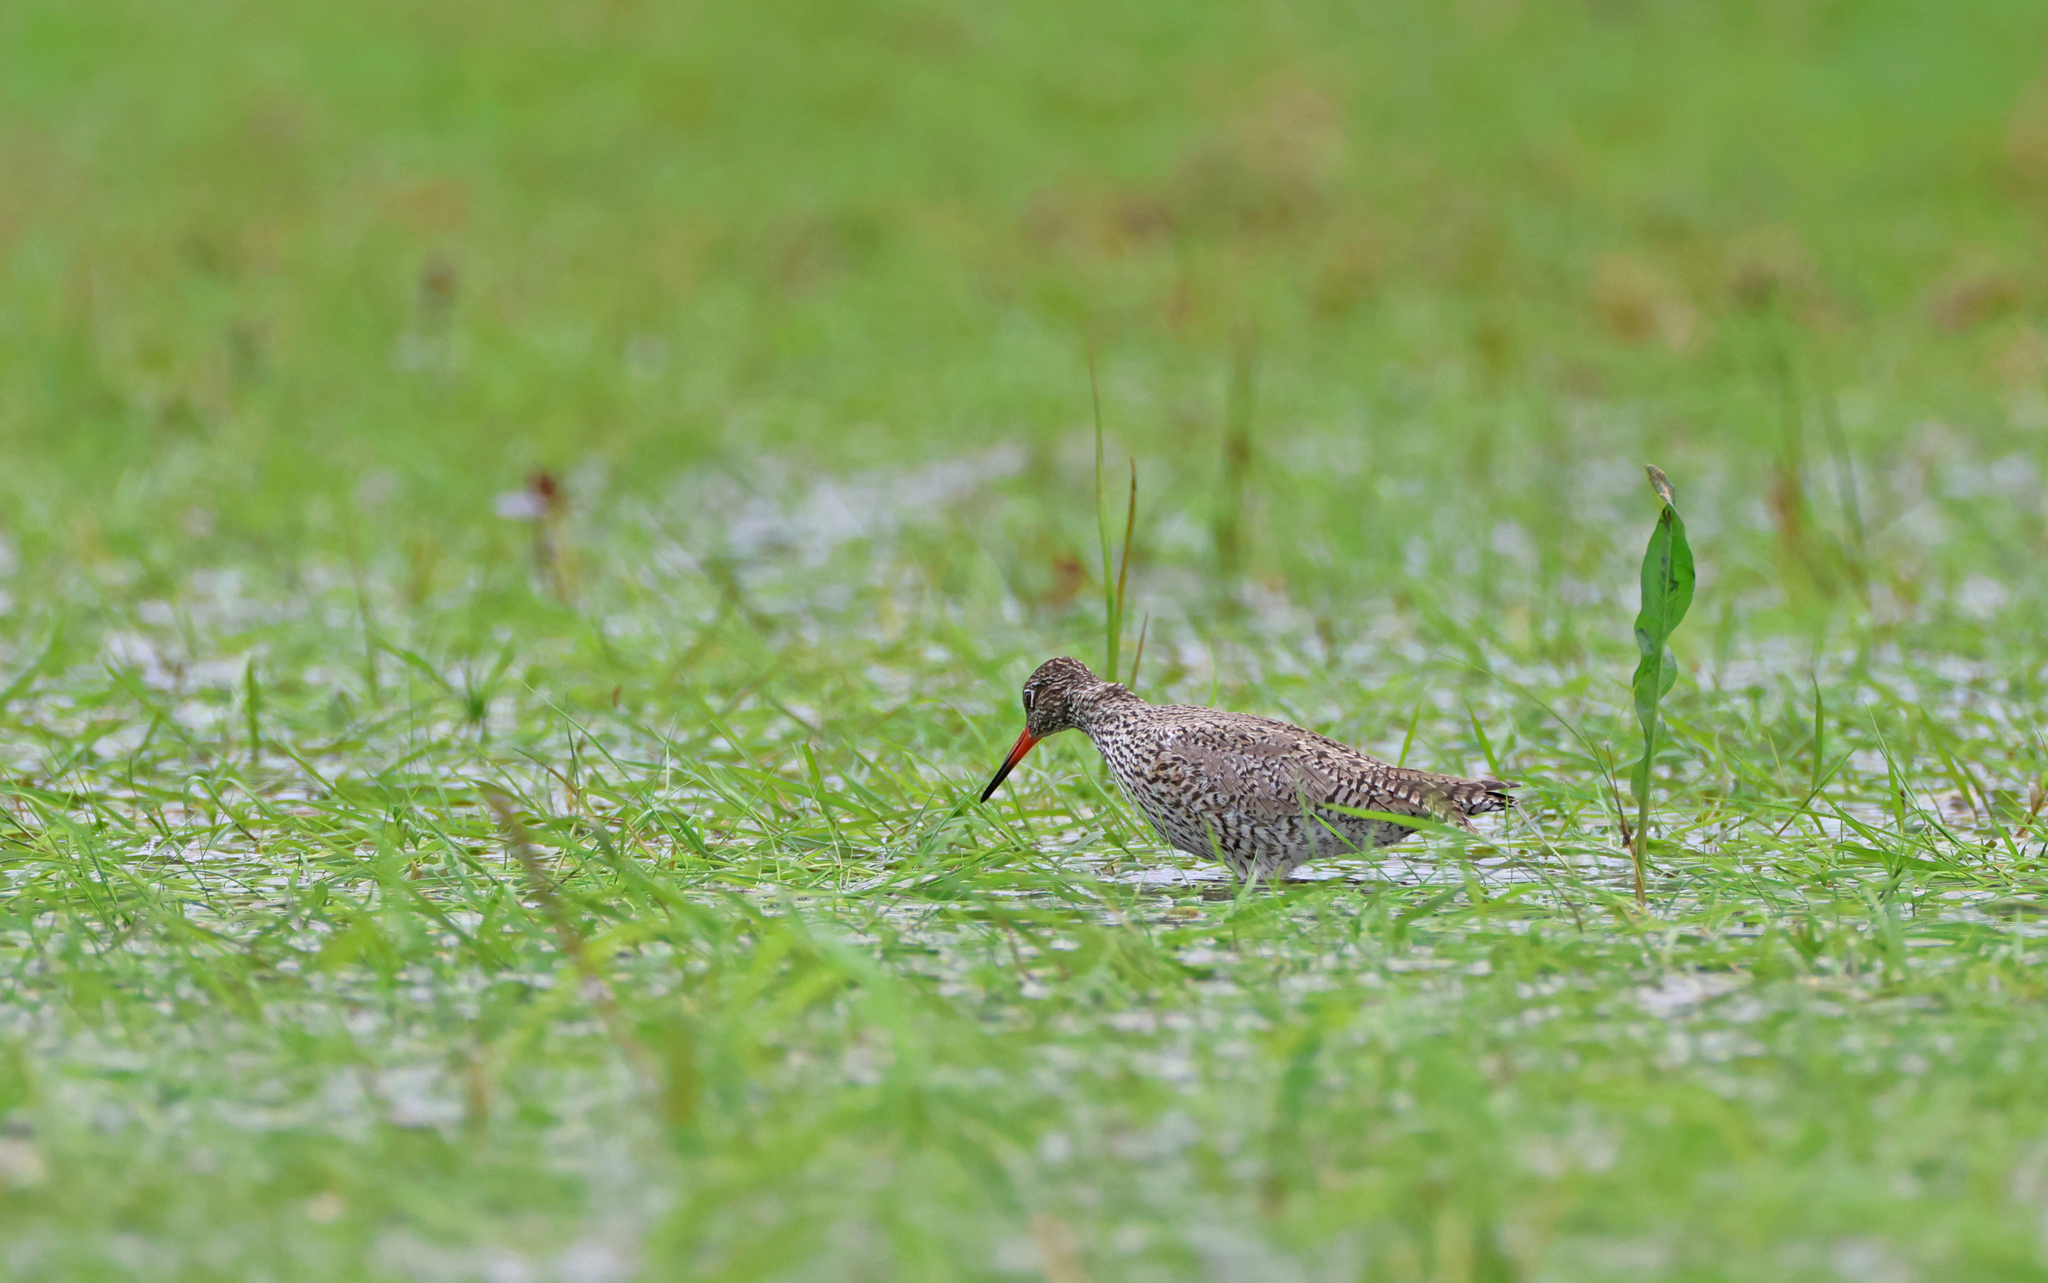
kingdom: Animalia
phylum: Chordata
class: Aves
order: Charadriiformes
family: Scolopacidae
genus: Tringa
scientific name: Tringa totanus
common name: Common redshank
